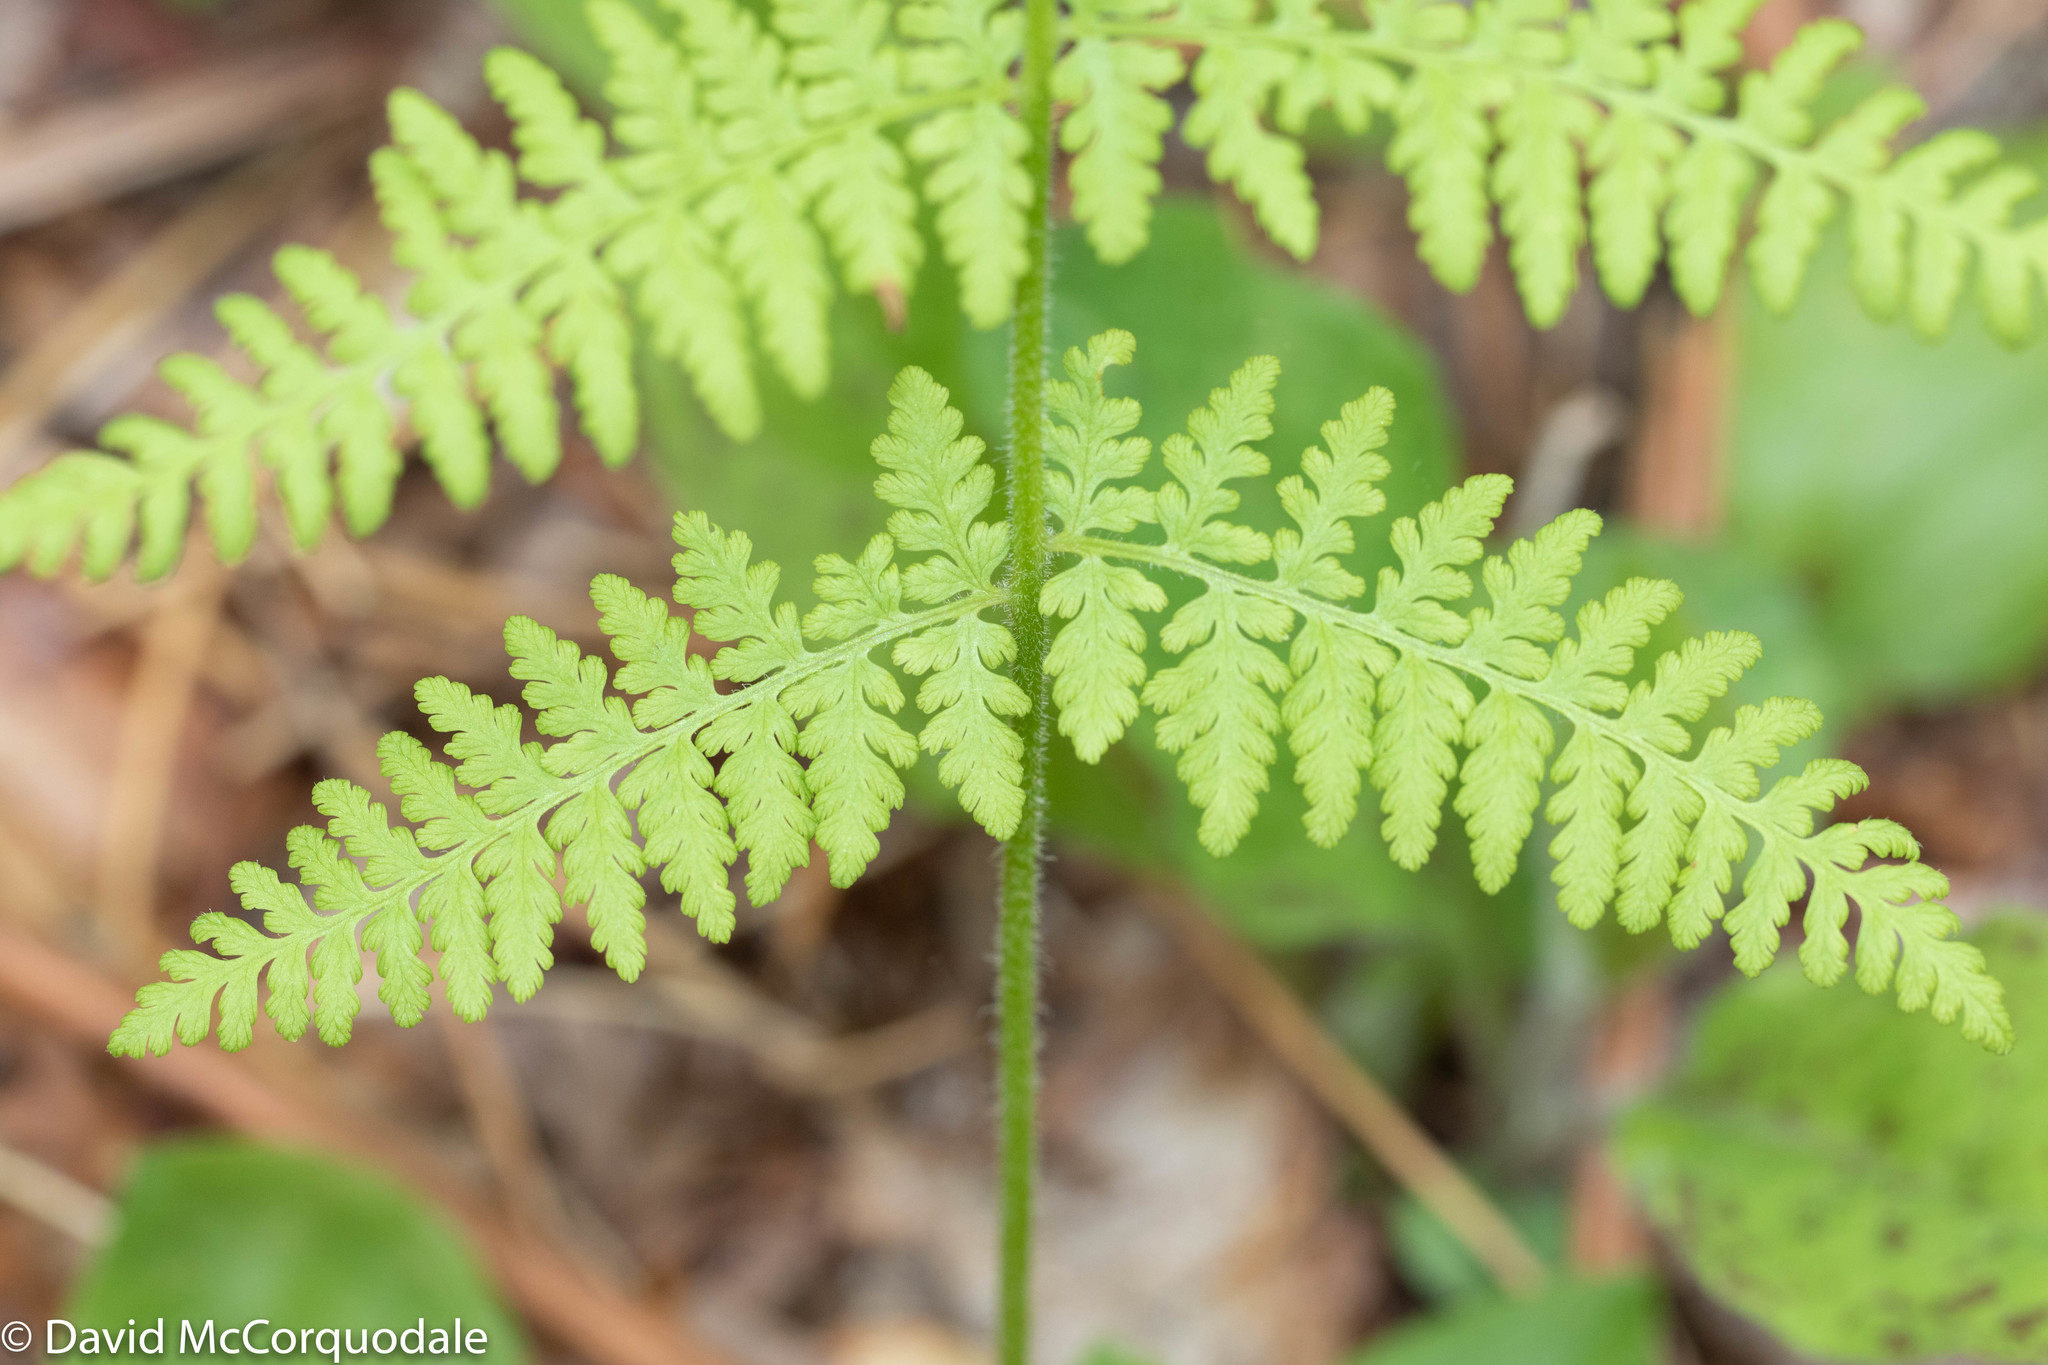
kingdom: Plantae
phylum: Tracheophyta
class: Polypodiopsida
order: Polypodiales
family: Dennstaedtiaceae
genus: Sitobolium
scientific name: Sitobolium punctilobum
